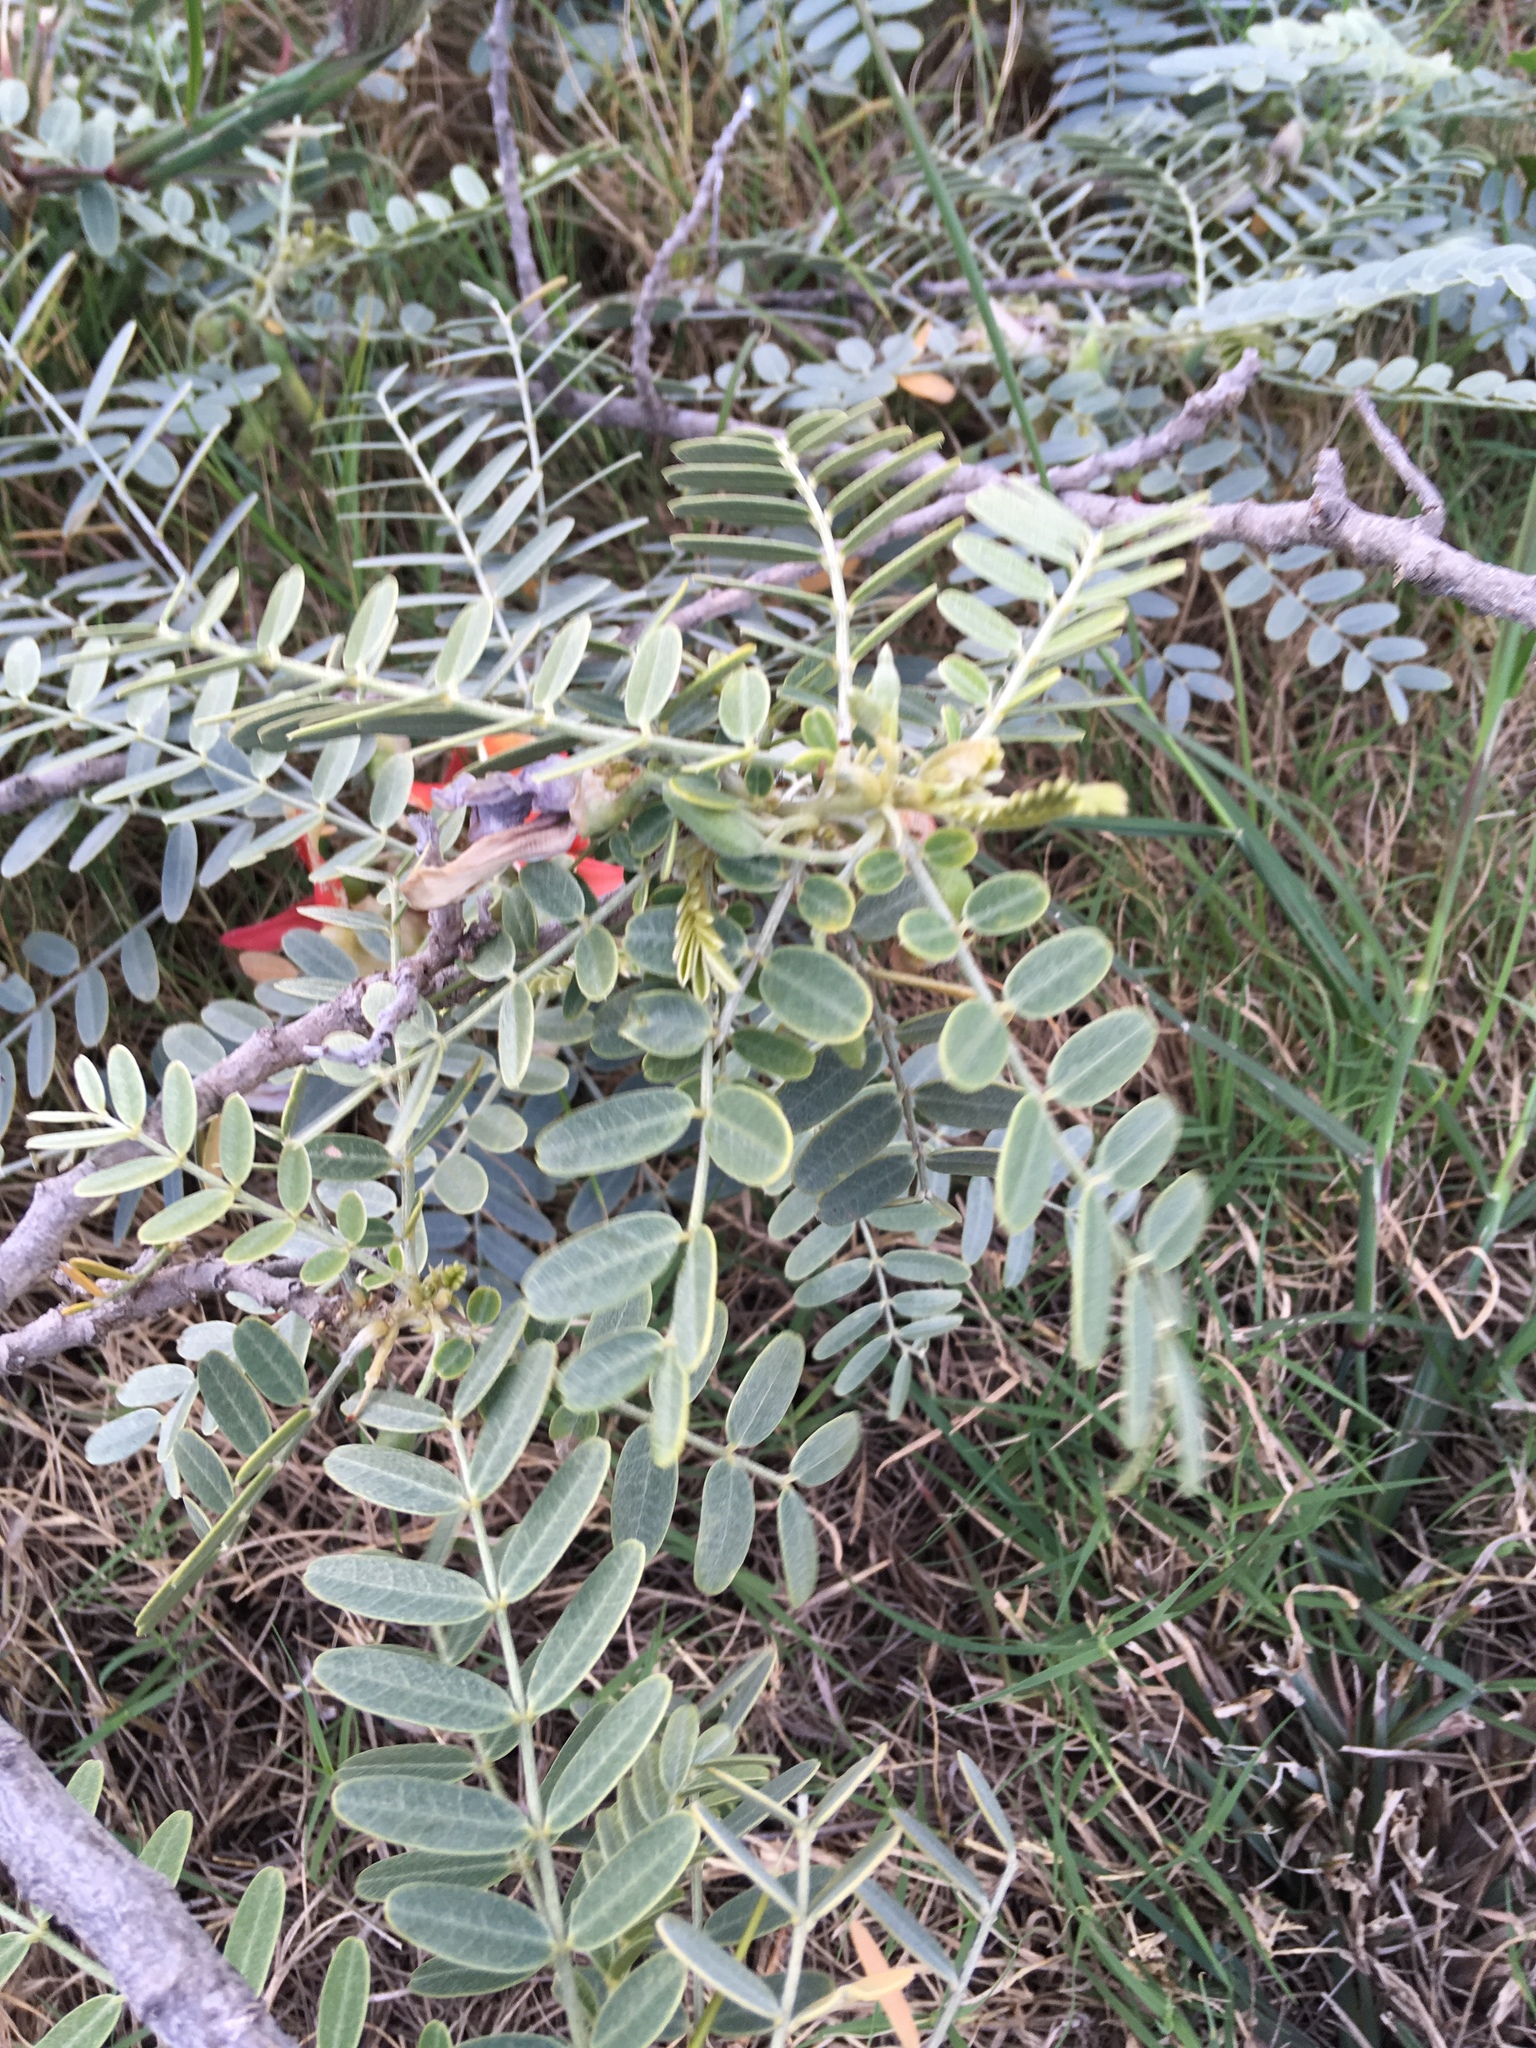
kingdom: Plantae
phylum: Tracheophyta
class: Magnoliopsida
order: Fabales
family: Fabaceae
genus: Sesbania
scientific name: Sesbania tomentosa
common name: `ohai
